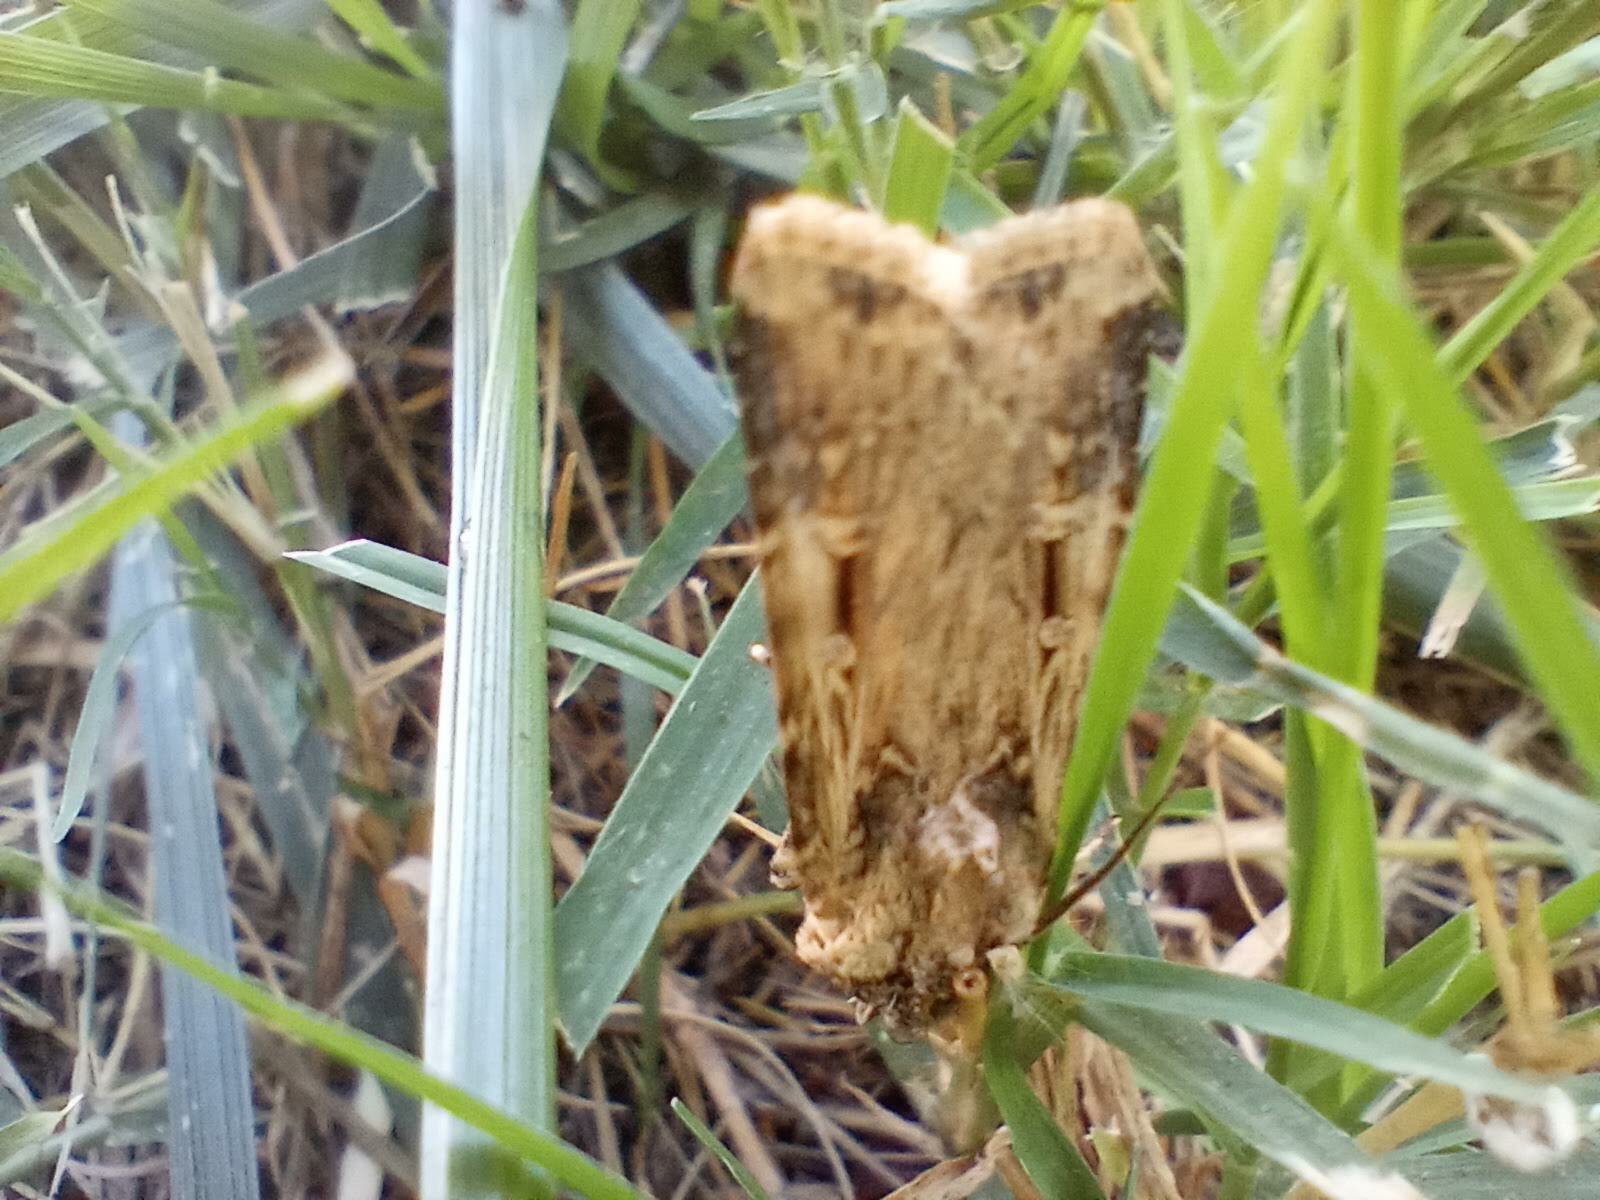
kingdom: Animalia
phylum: Arthropoda
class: Insecta
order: Lepidoptera
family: Noctuidae
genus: Feltia
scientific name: Feltia subterranea
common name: Granulate cutworm
